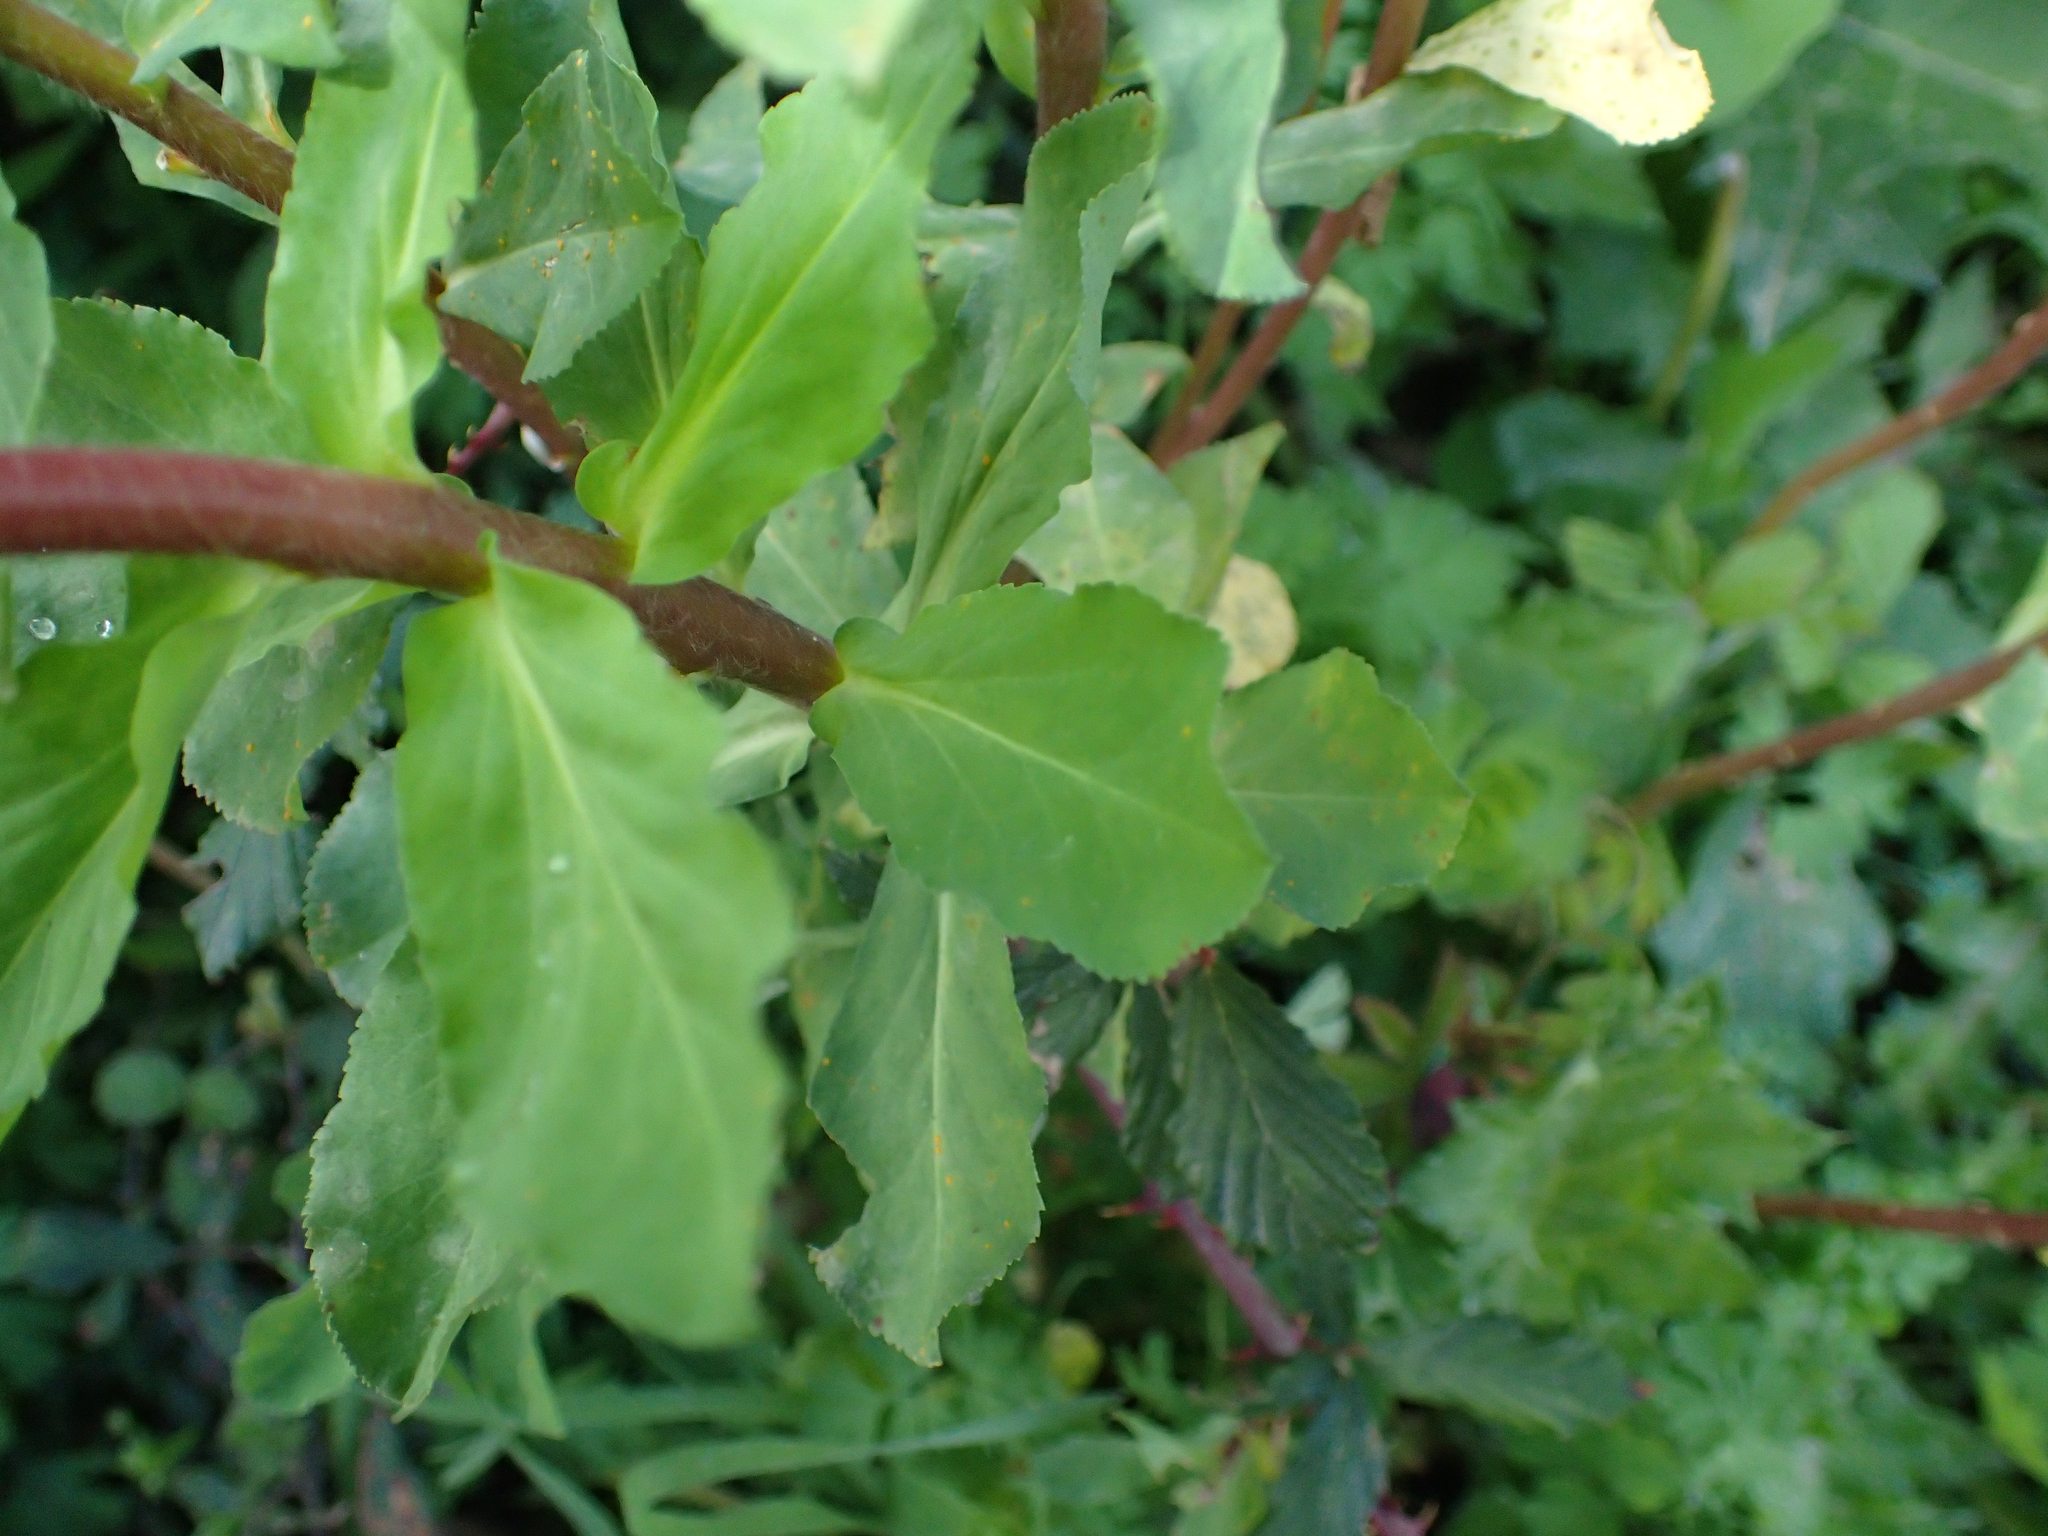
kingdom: Plantae
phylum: Tracheophyta
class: Magnoliopsida
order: Malpighiales
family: Euphorbiaceae
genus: Euphorbia
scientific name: Euphorbia helioscopia
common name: Sun spurge
